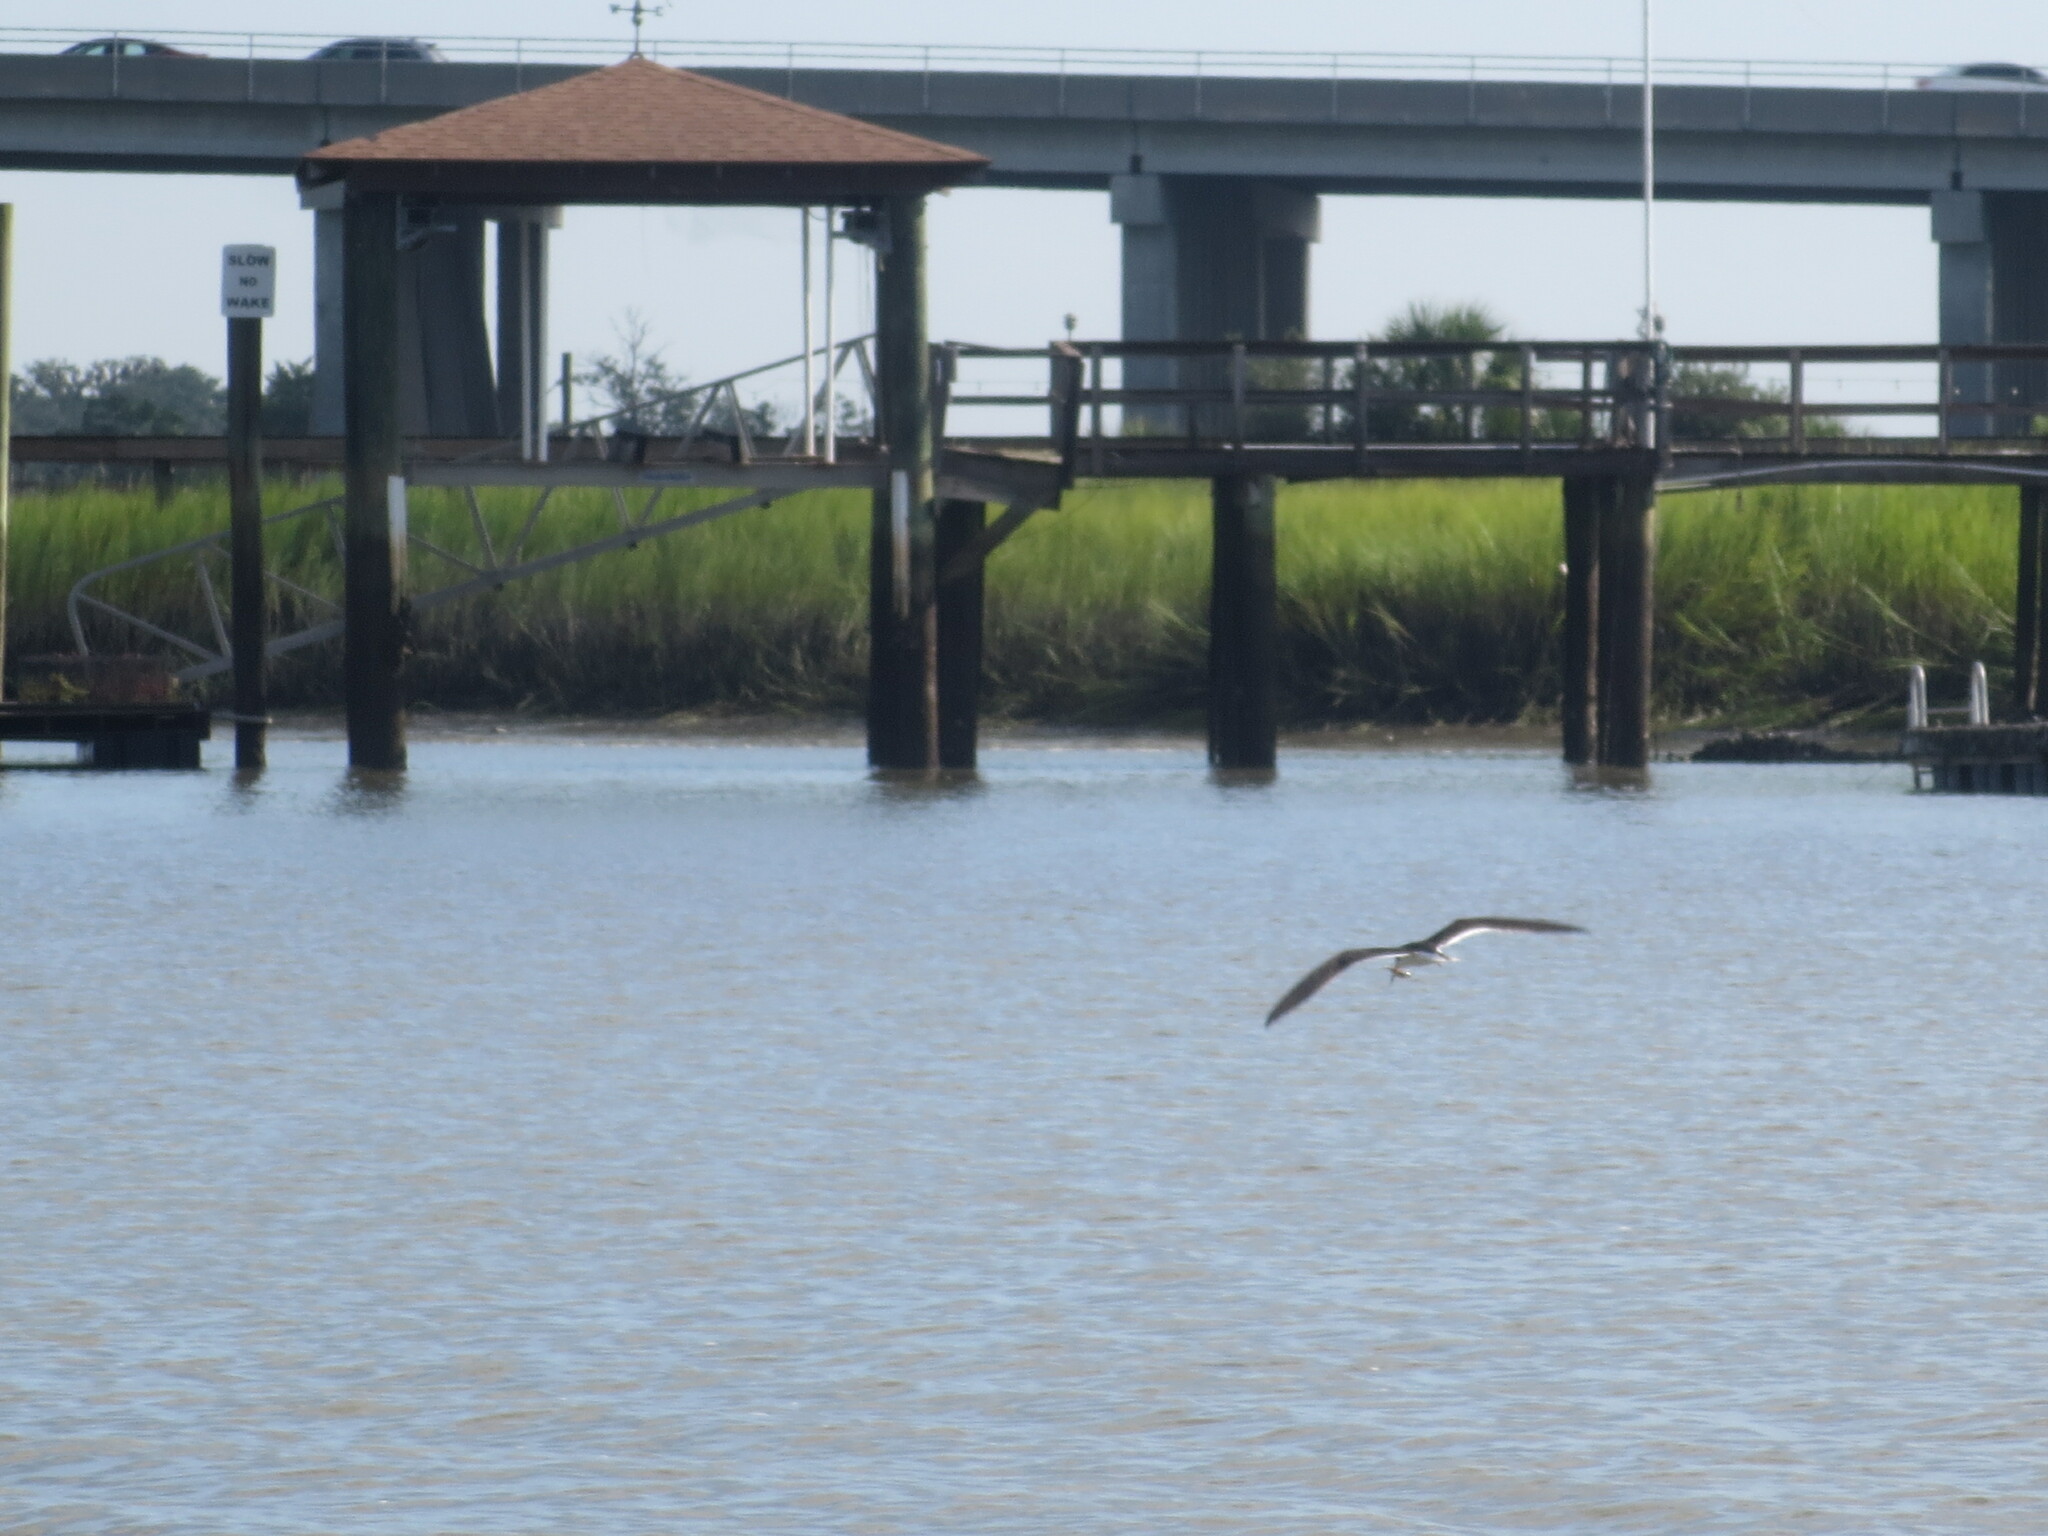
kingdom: Animalia
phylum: Chordata
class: Aves
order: Charadriiformes
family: Laridae
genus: Rynchops
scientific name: Rynchops niger
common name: Black skimmer
